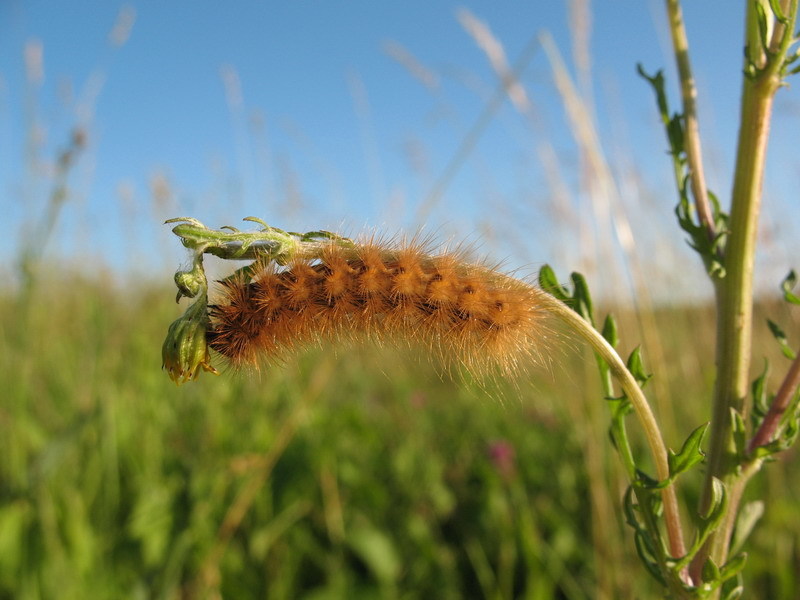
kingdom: Animalia
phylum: Arthropoda
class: Insecta
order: Lepidoptera
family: Erebidae
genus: Diaphora
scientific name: Diaphora mendica
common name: Muslin moth
